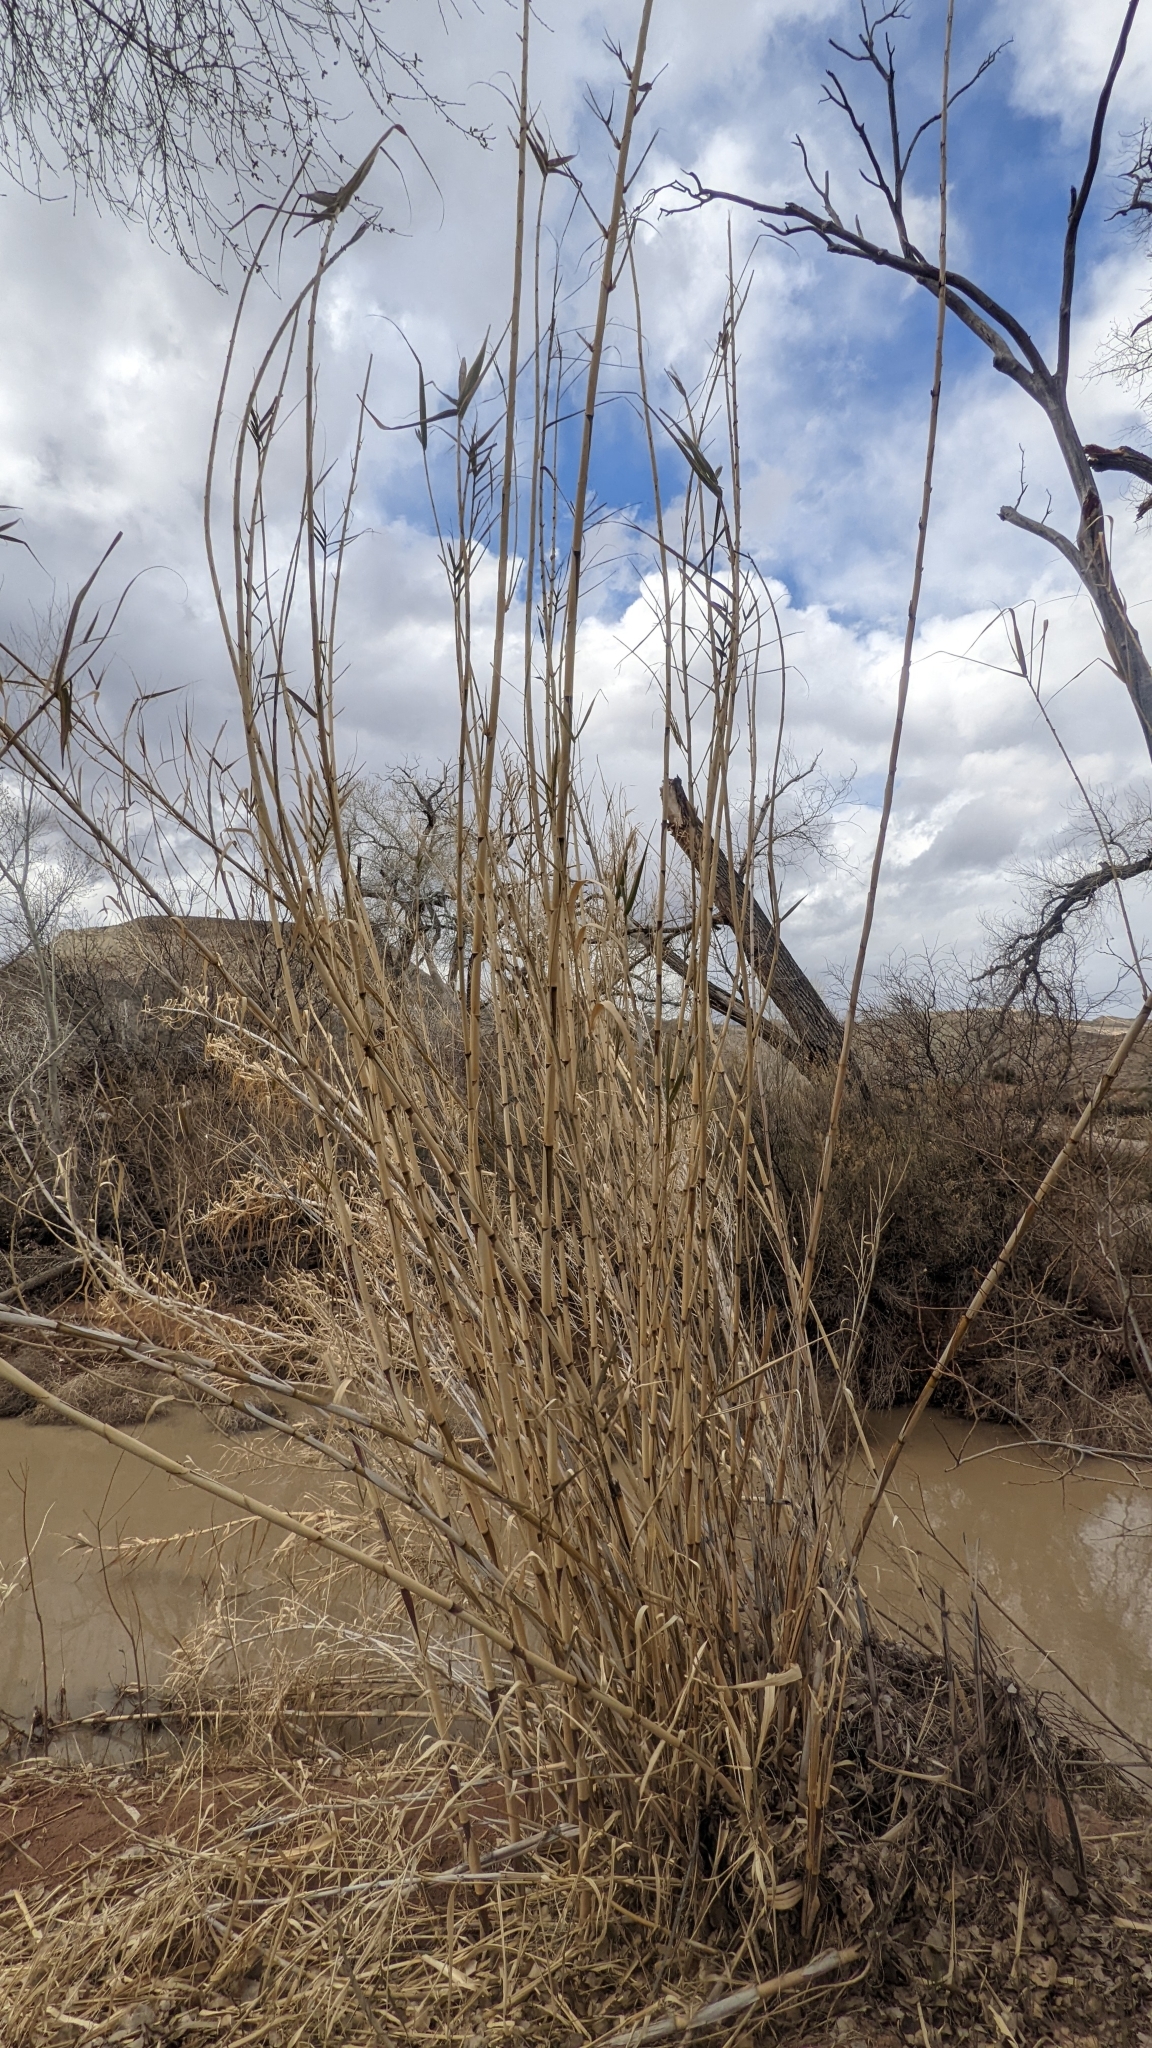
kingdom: Plantae
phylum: Tracheophyta
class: Liliopsida
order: Poales
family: Poaceae
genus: Arundo
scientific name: Arundo donax
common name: Giant reed
